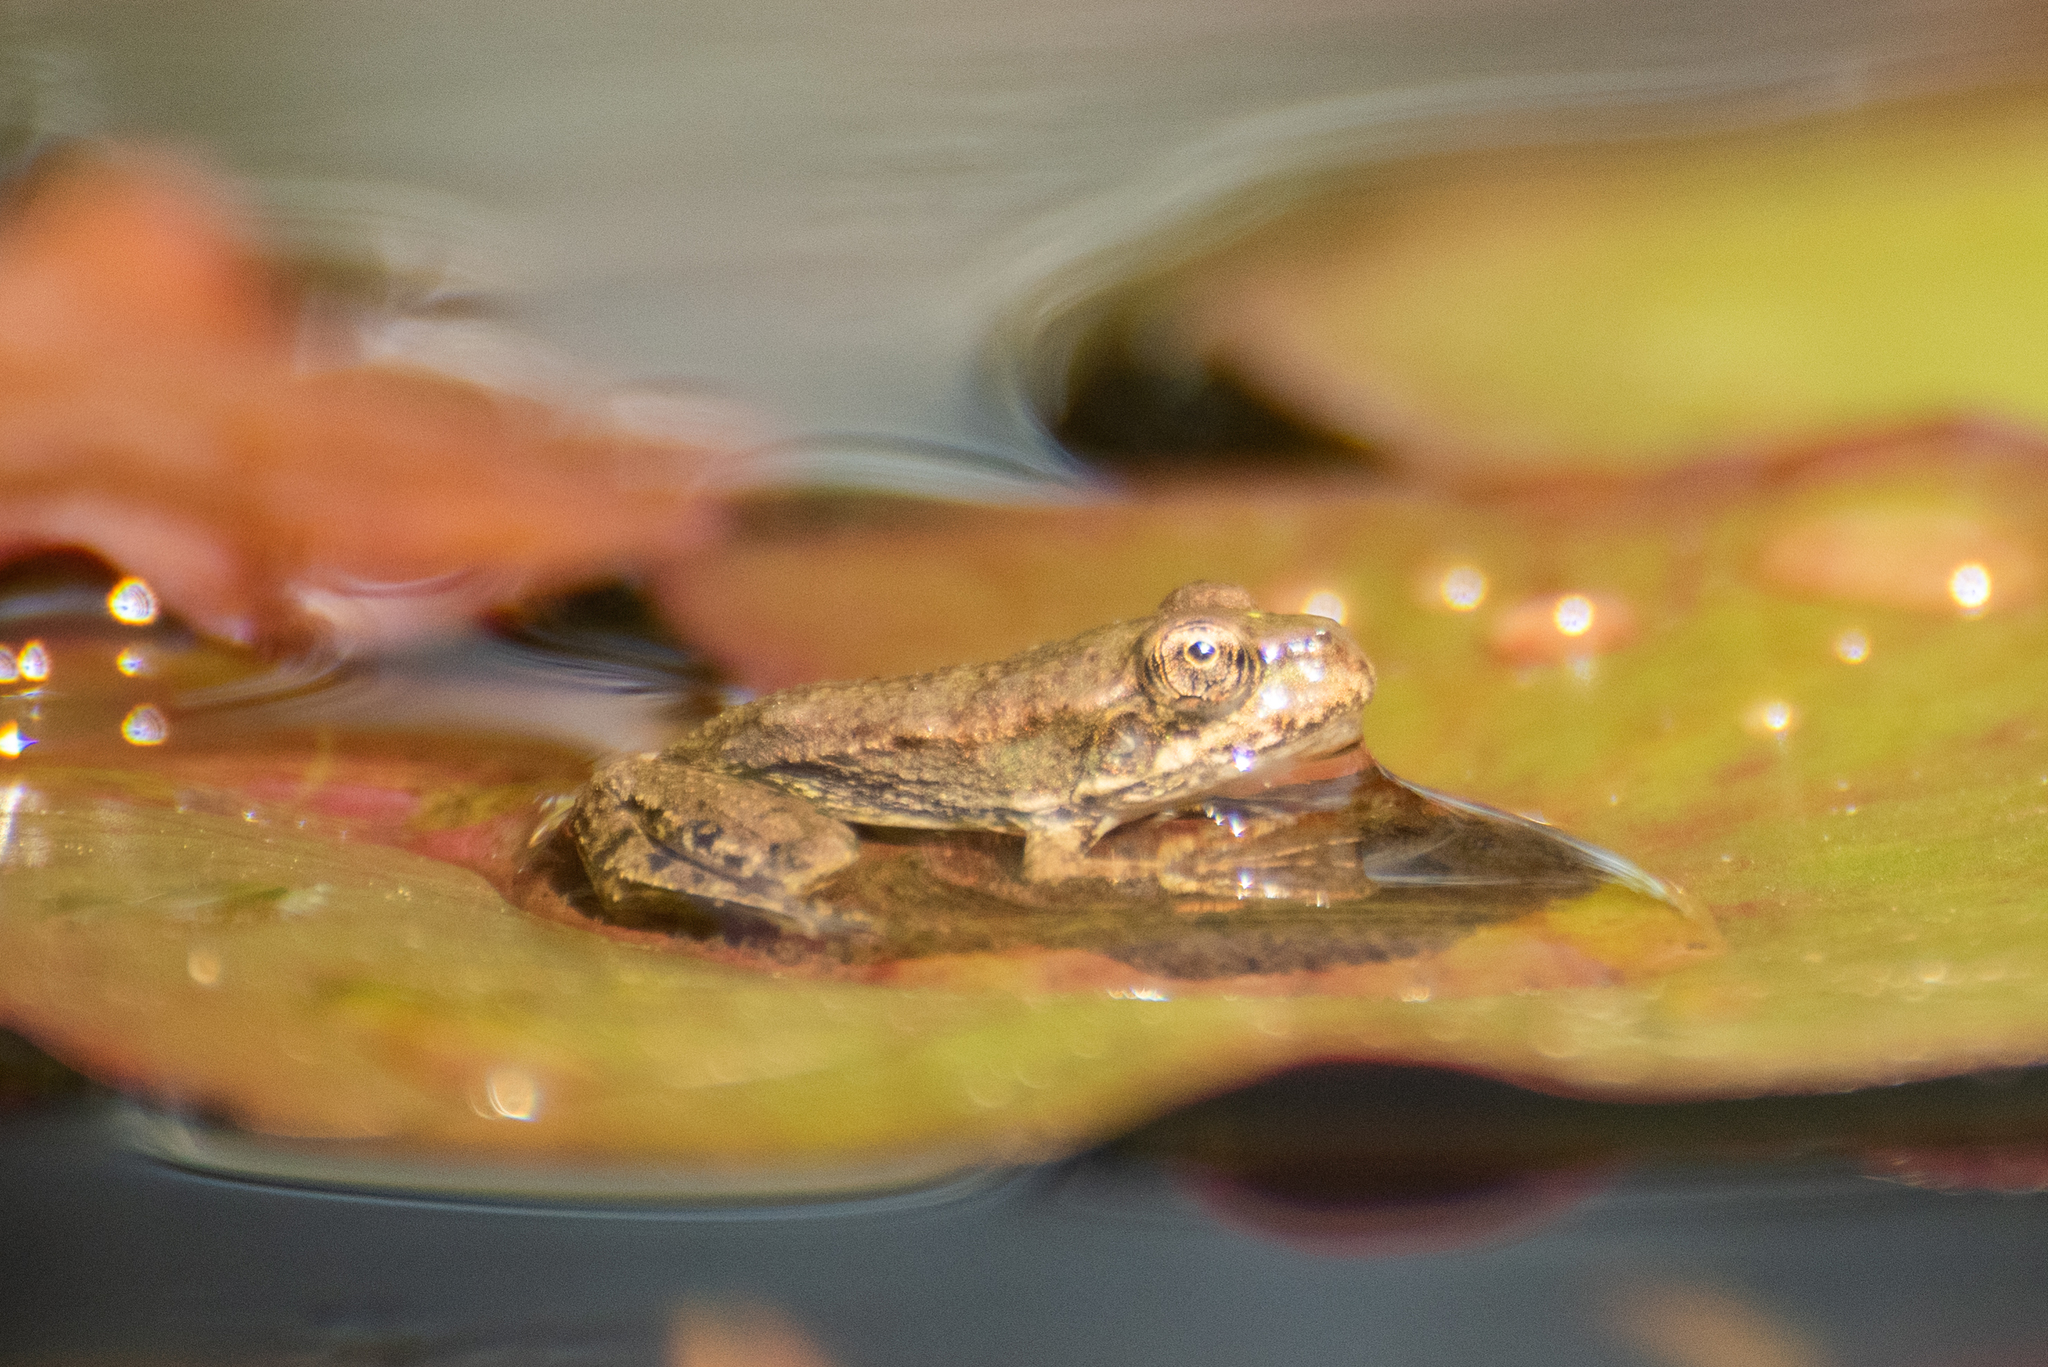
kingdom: Animalia
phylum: Chordata
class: Amphibia
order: Anura
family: Ranidae
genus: Pelophylax
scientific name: Pelophylax ridibundus
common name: Marsh frog
